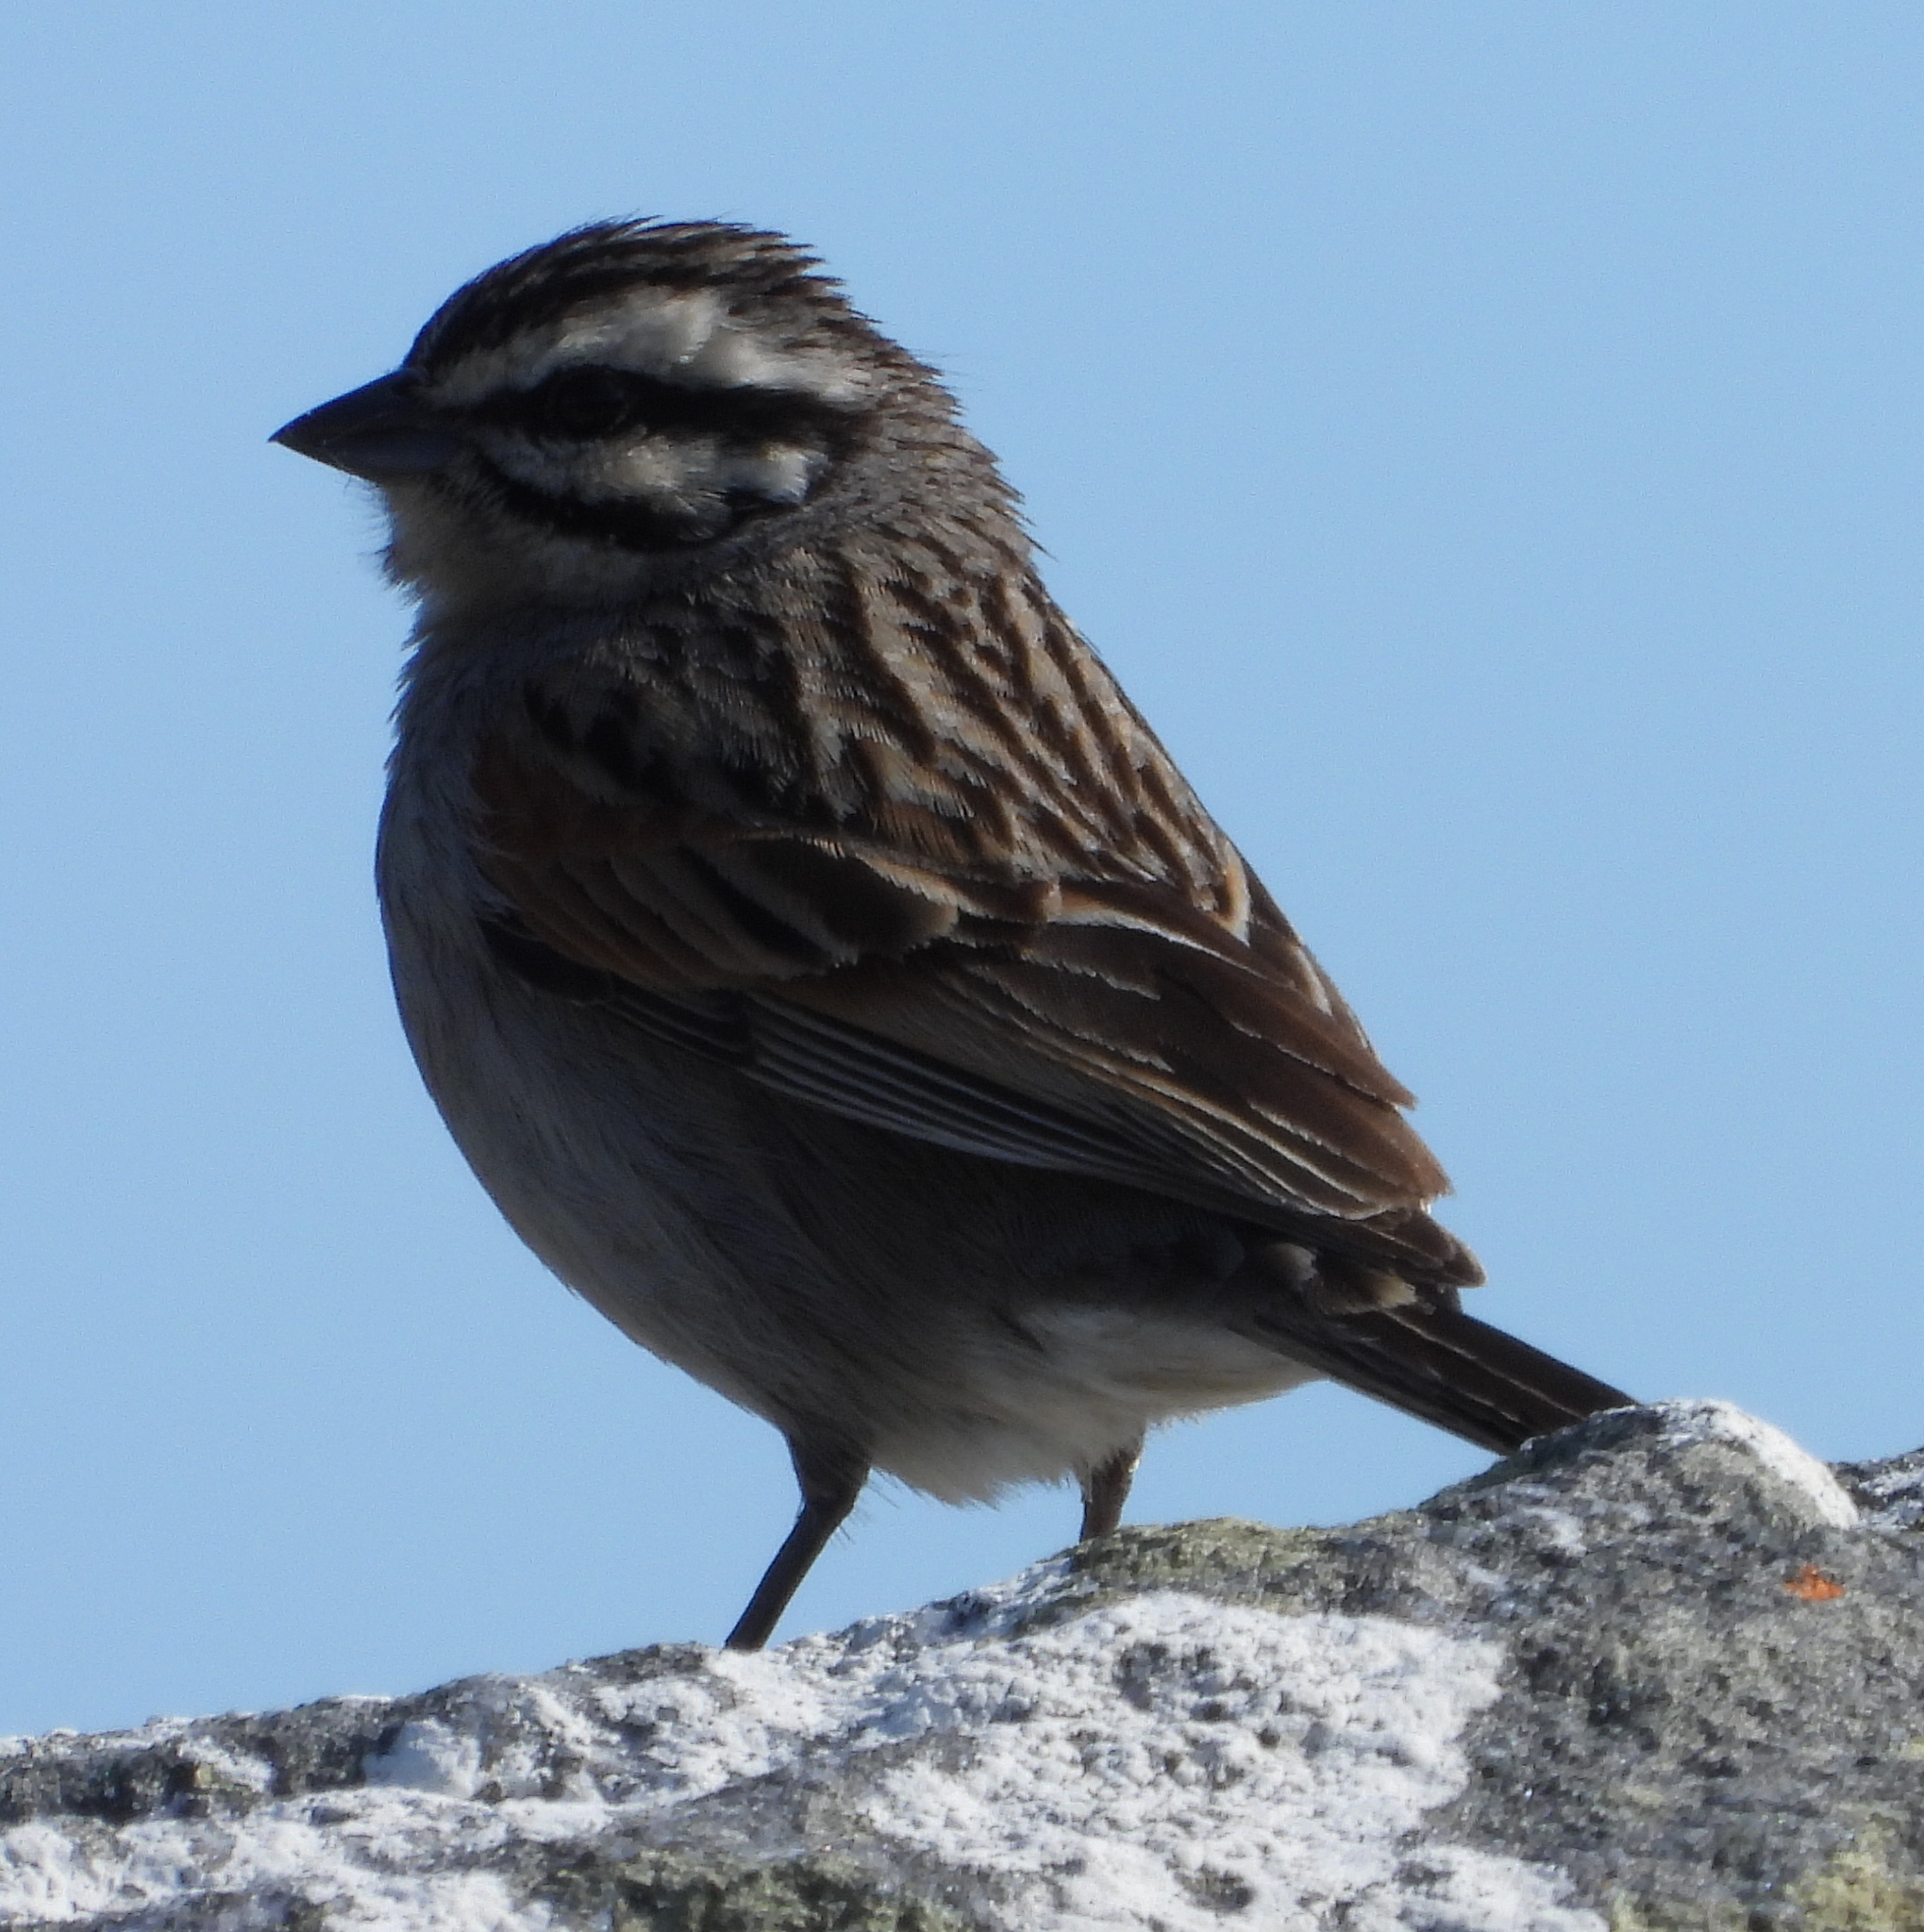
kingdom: Animalia
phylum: Chordata
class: Aves
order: Passeriformes
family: Emberizidae
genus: Emberiza
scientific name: Emberiza capensis
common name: Cape bunting
